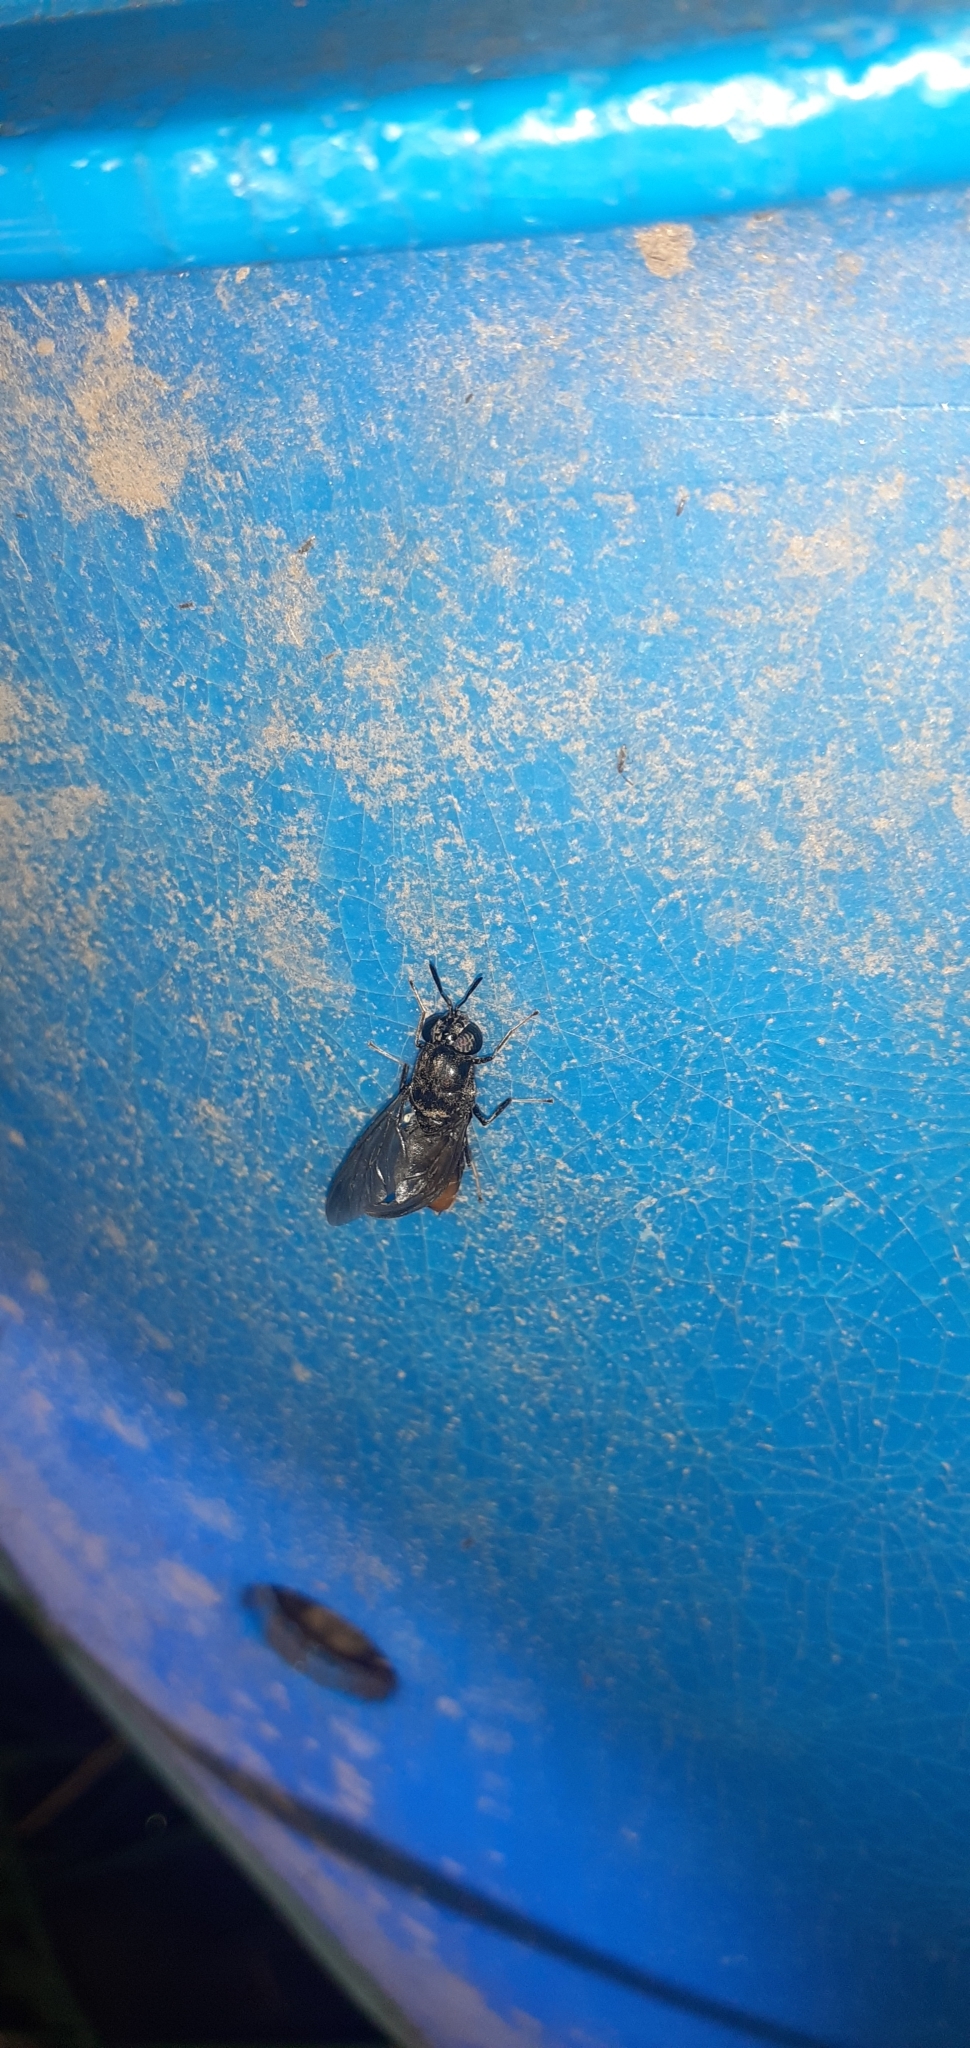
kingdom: Animalia
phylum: Arthropoda
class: Insecta
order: Diptera
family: Stratiomyidae
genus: Hermetia
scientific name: Hermetia illucens
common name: Black soldier fly
